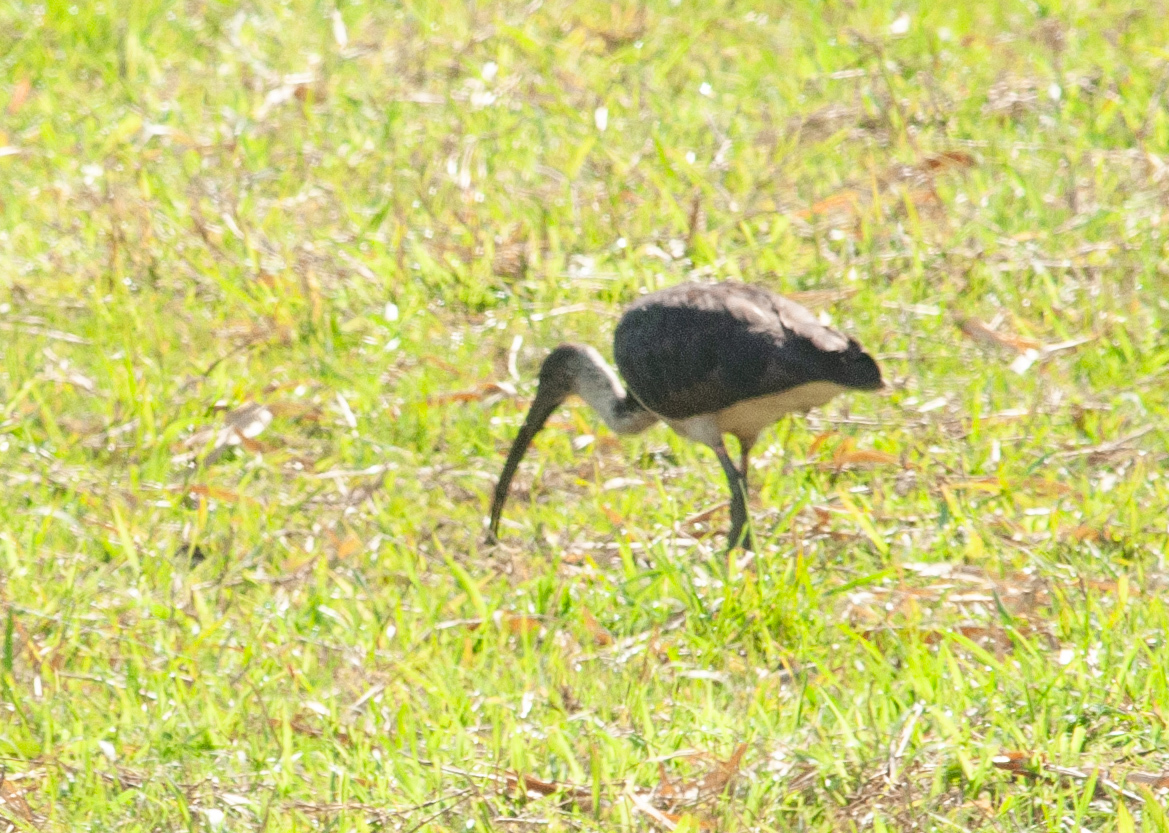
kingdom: Animalia
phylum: Chordata
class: Aves
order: Pelecaniformes
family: Threskiornithidae
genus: Threskiornis
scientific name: Threskiornis spinicollis
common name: Straw-necked ibis
